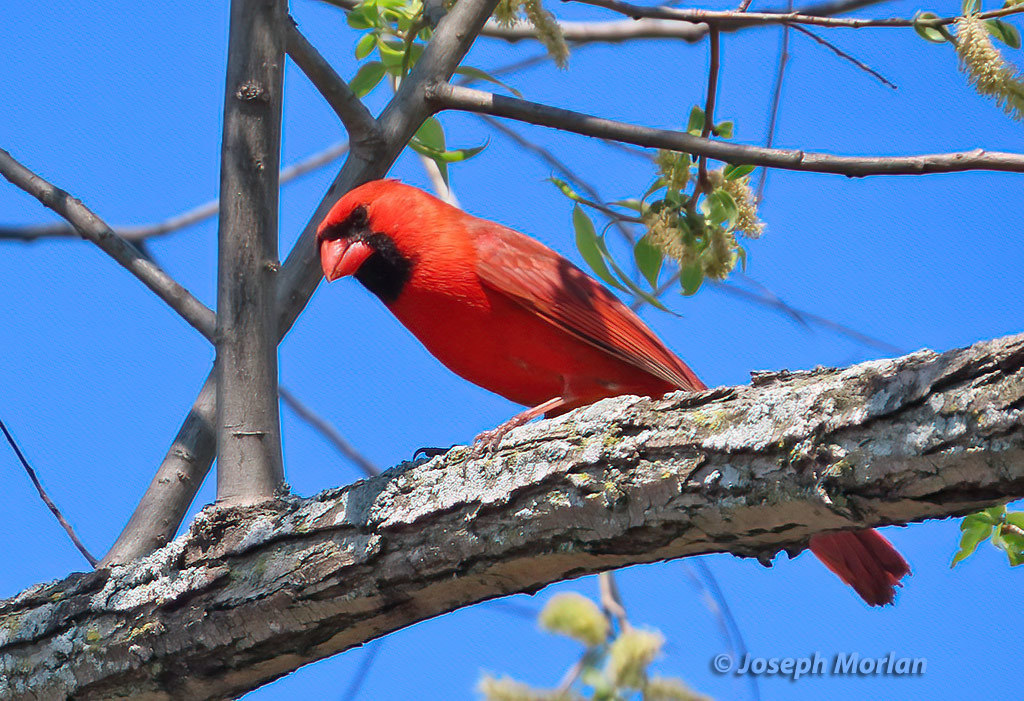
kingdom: Animalia
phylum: Chordata
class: Aves
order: Passeriformes
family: Cardinalidae
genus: Cardinalis
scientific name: Cardinalis cardinalis
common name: Northern cardinal
